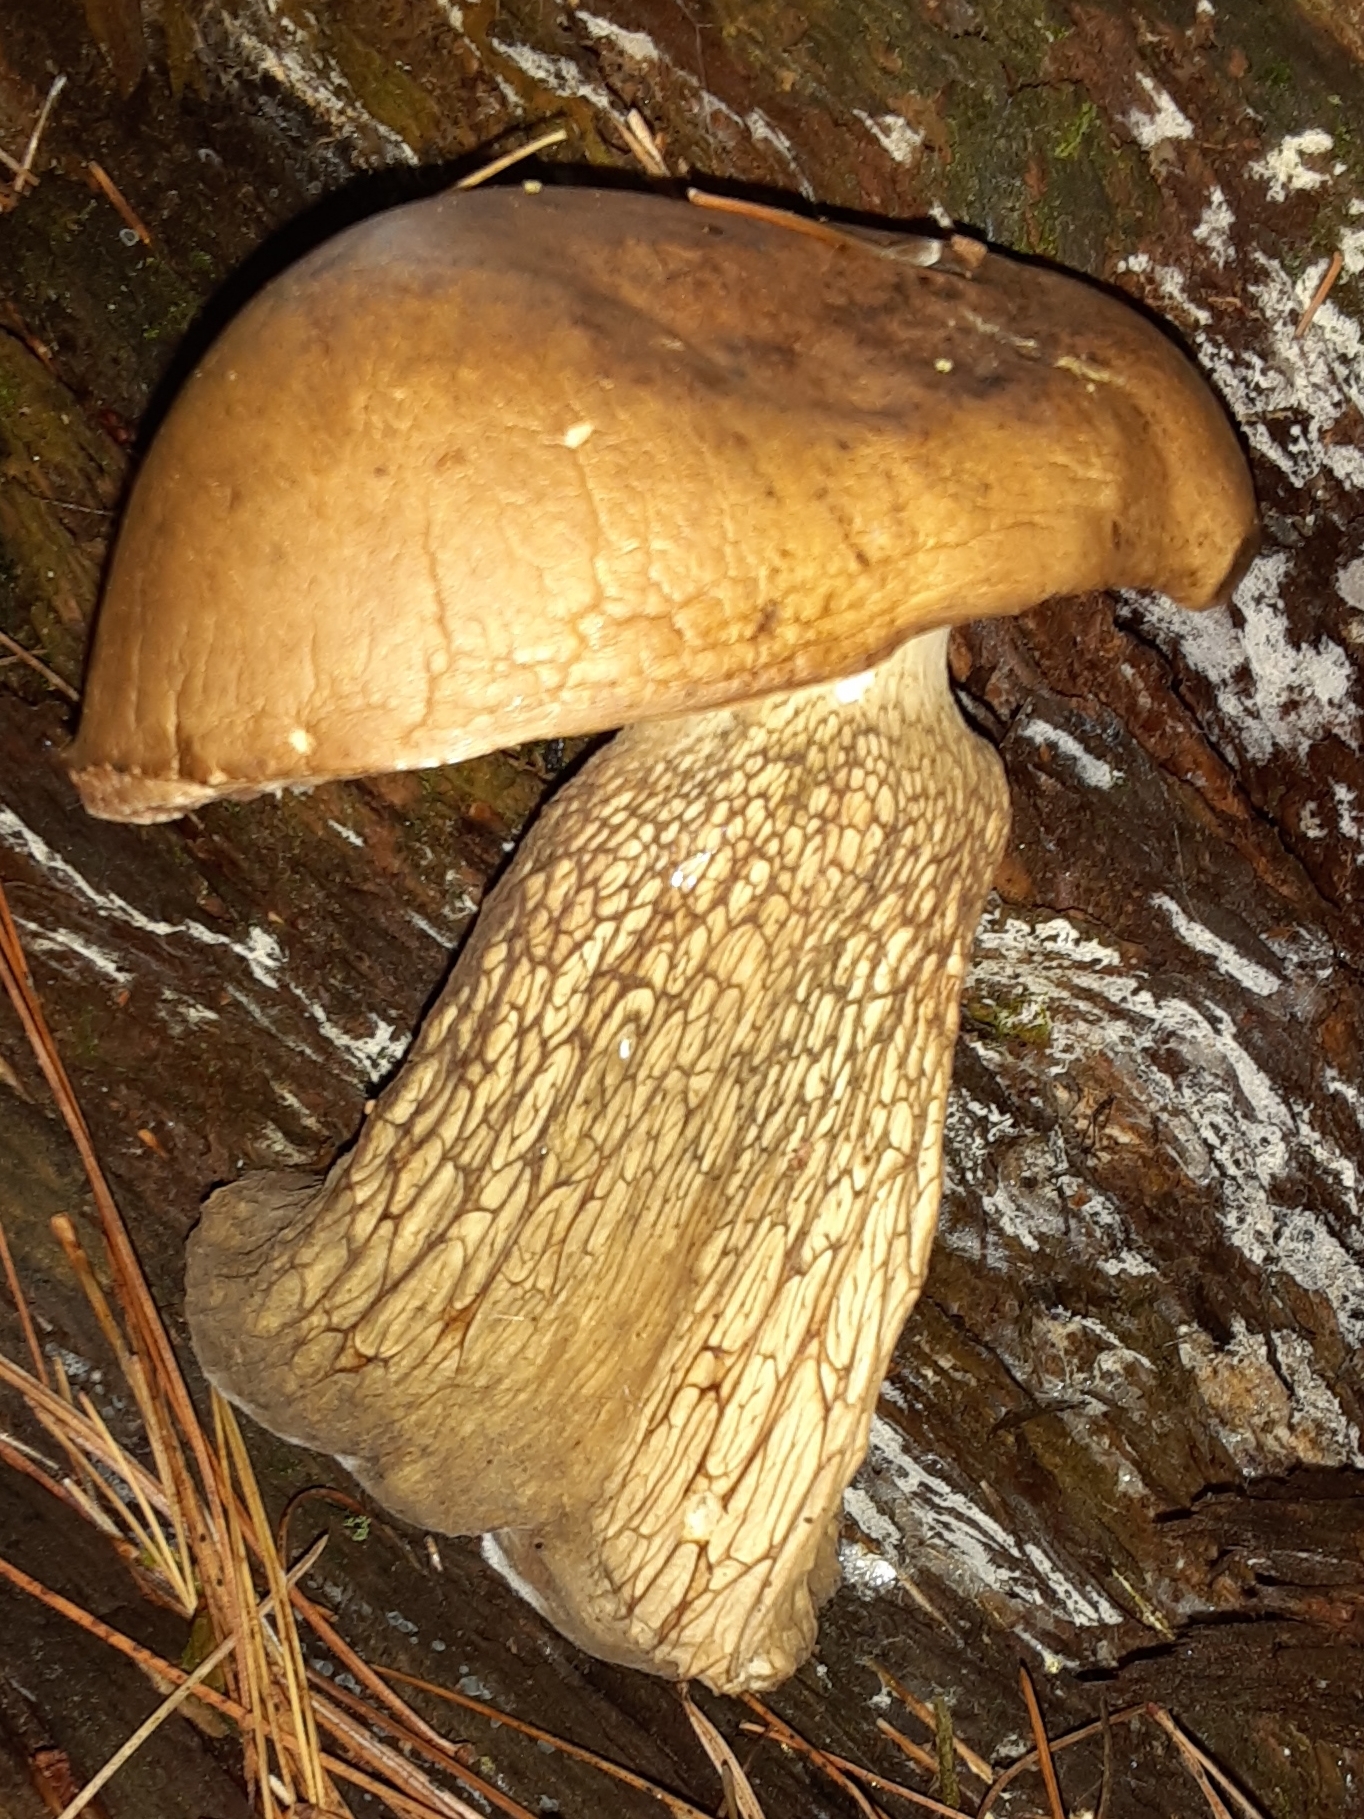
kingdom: Fungi
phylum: Basidiomycota
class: Agaricomycetes
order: Boletales
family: Boletaceae
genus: Tylopilus
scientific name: Tylopilus felleus
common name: Bitter bolete
